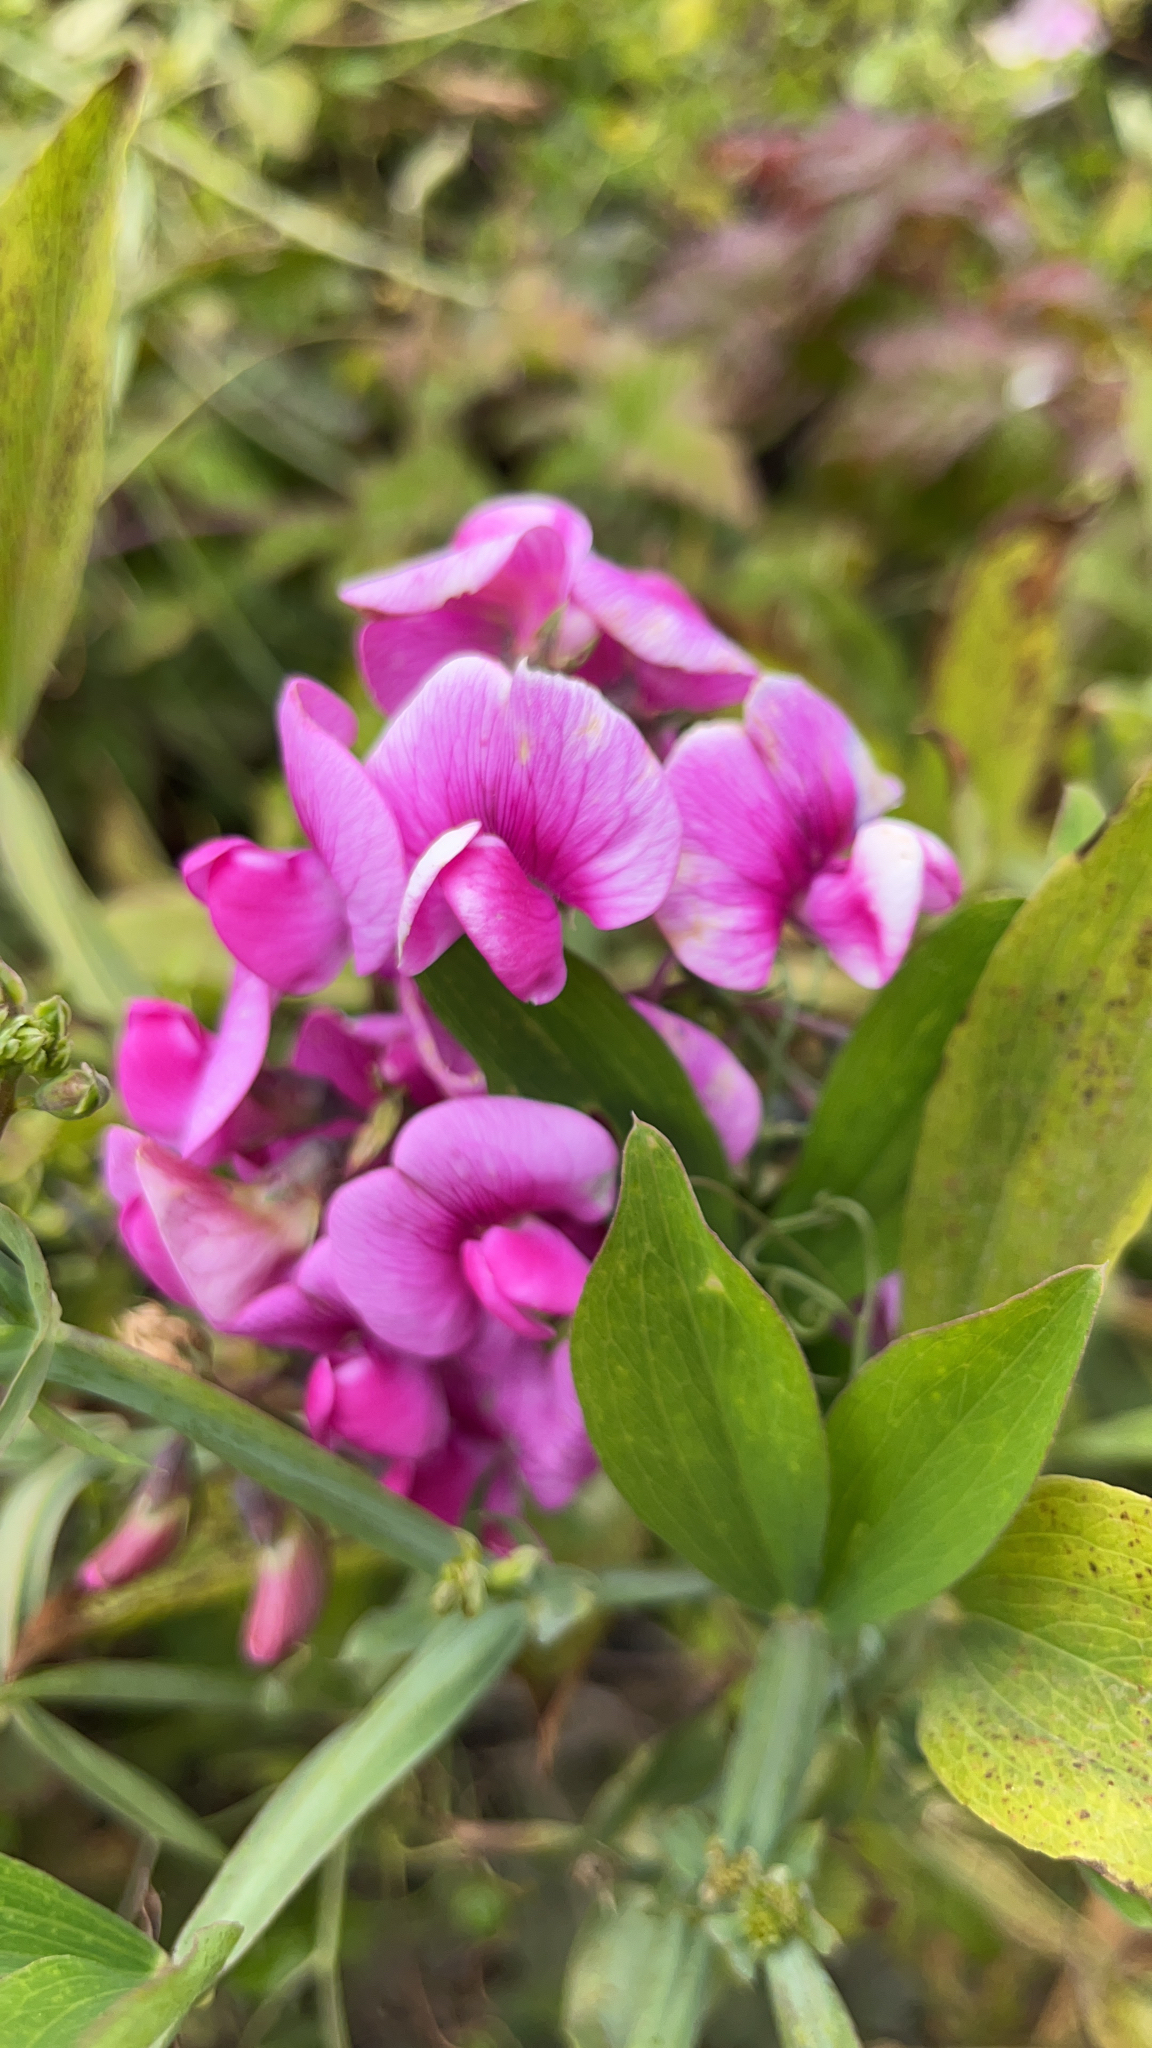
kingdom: Plantae
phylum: Tracheophyta
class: Magnoliopsida
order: Fabales
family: Fabaceae
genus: Lathyrus
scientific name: Lathyrus latifolius
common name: Perennial pea
